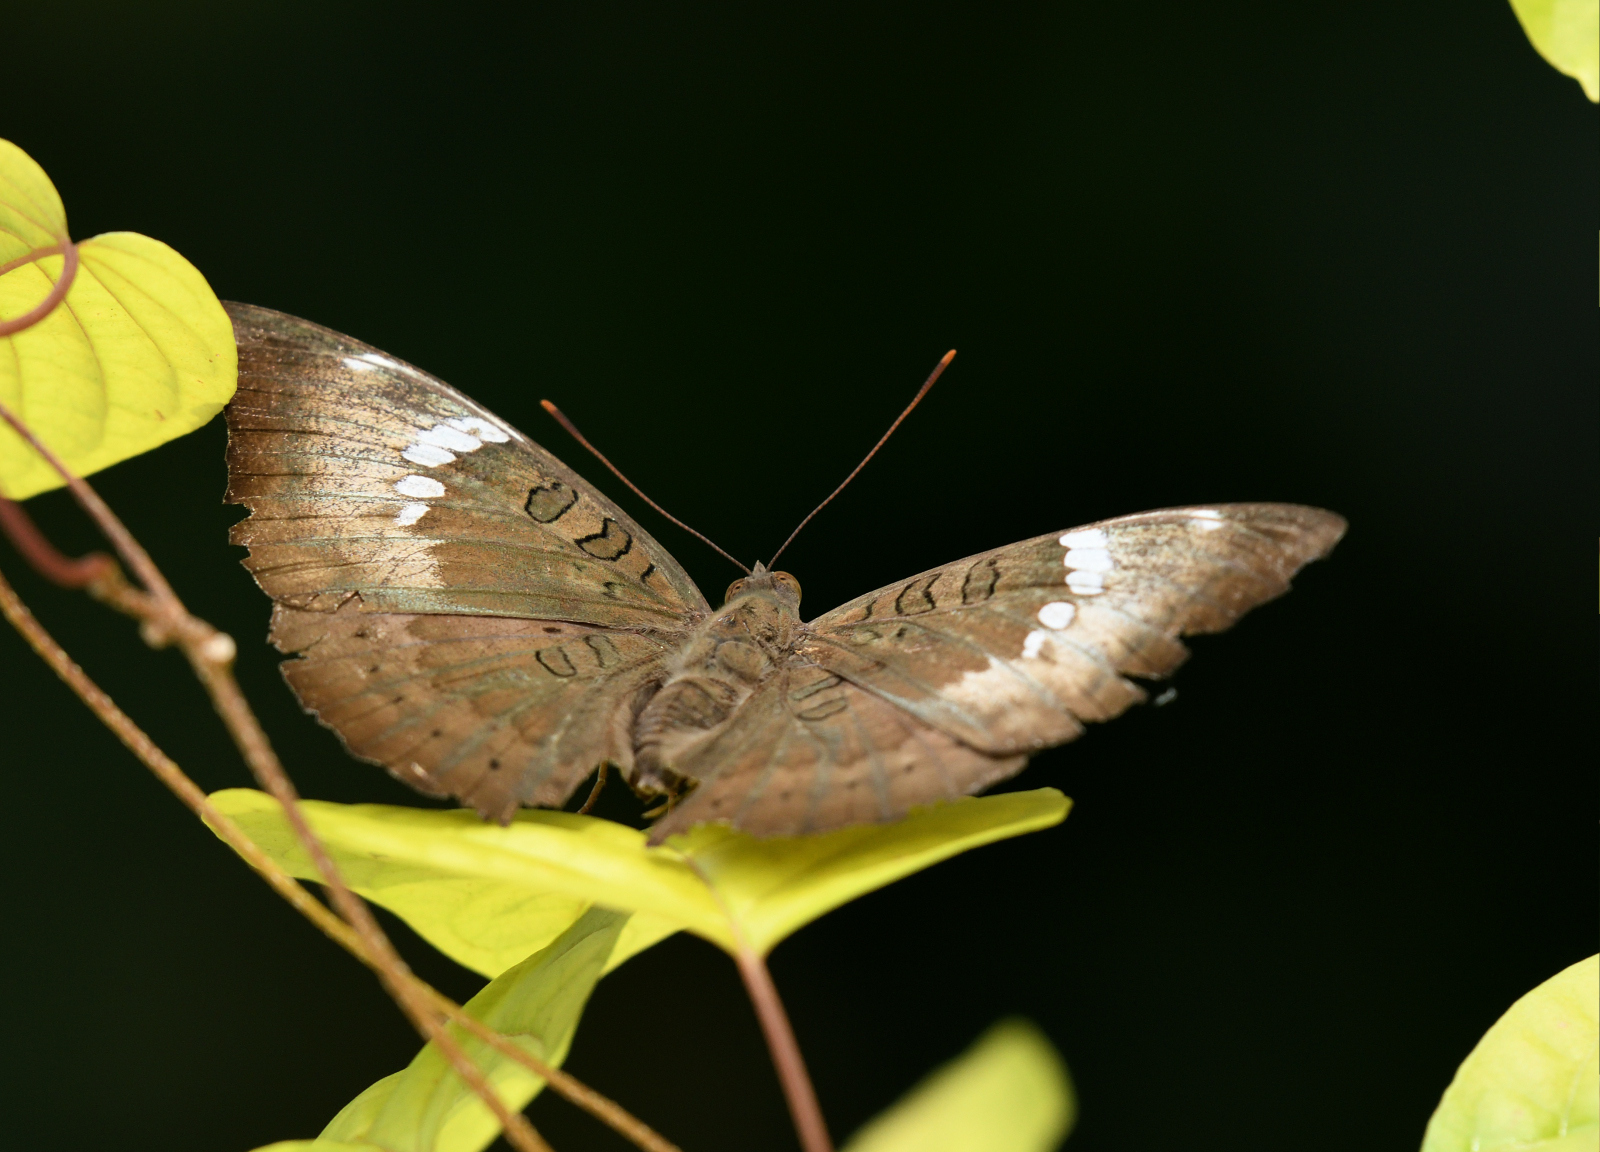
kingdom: Animalia
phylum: Arthropoda
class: Insecta
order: Lepidoptera
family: Nymphalidae
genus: Euthalia
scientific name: Euthalia aconthea
